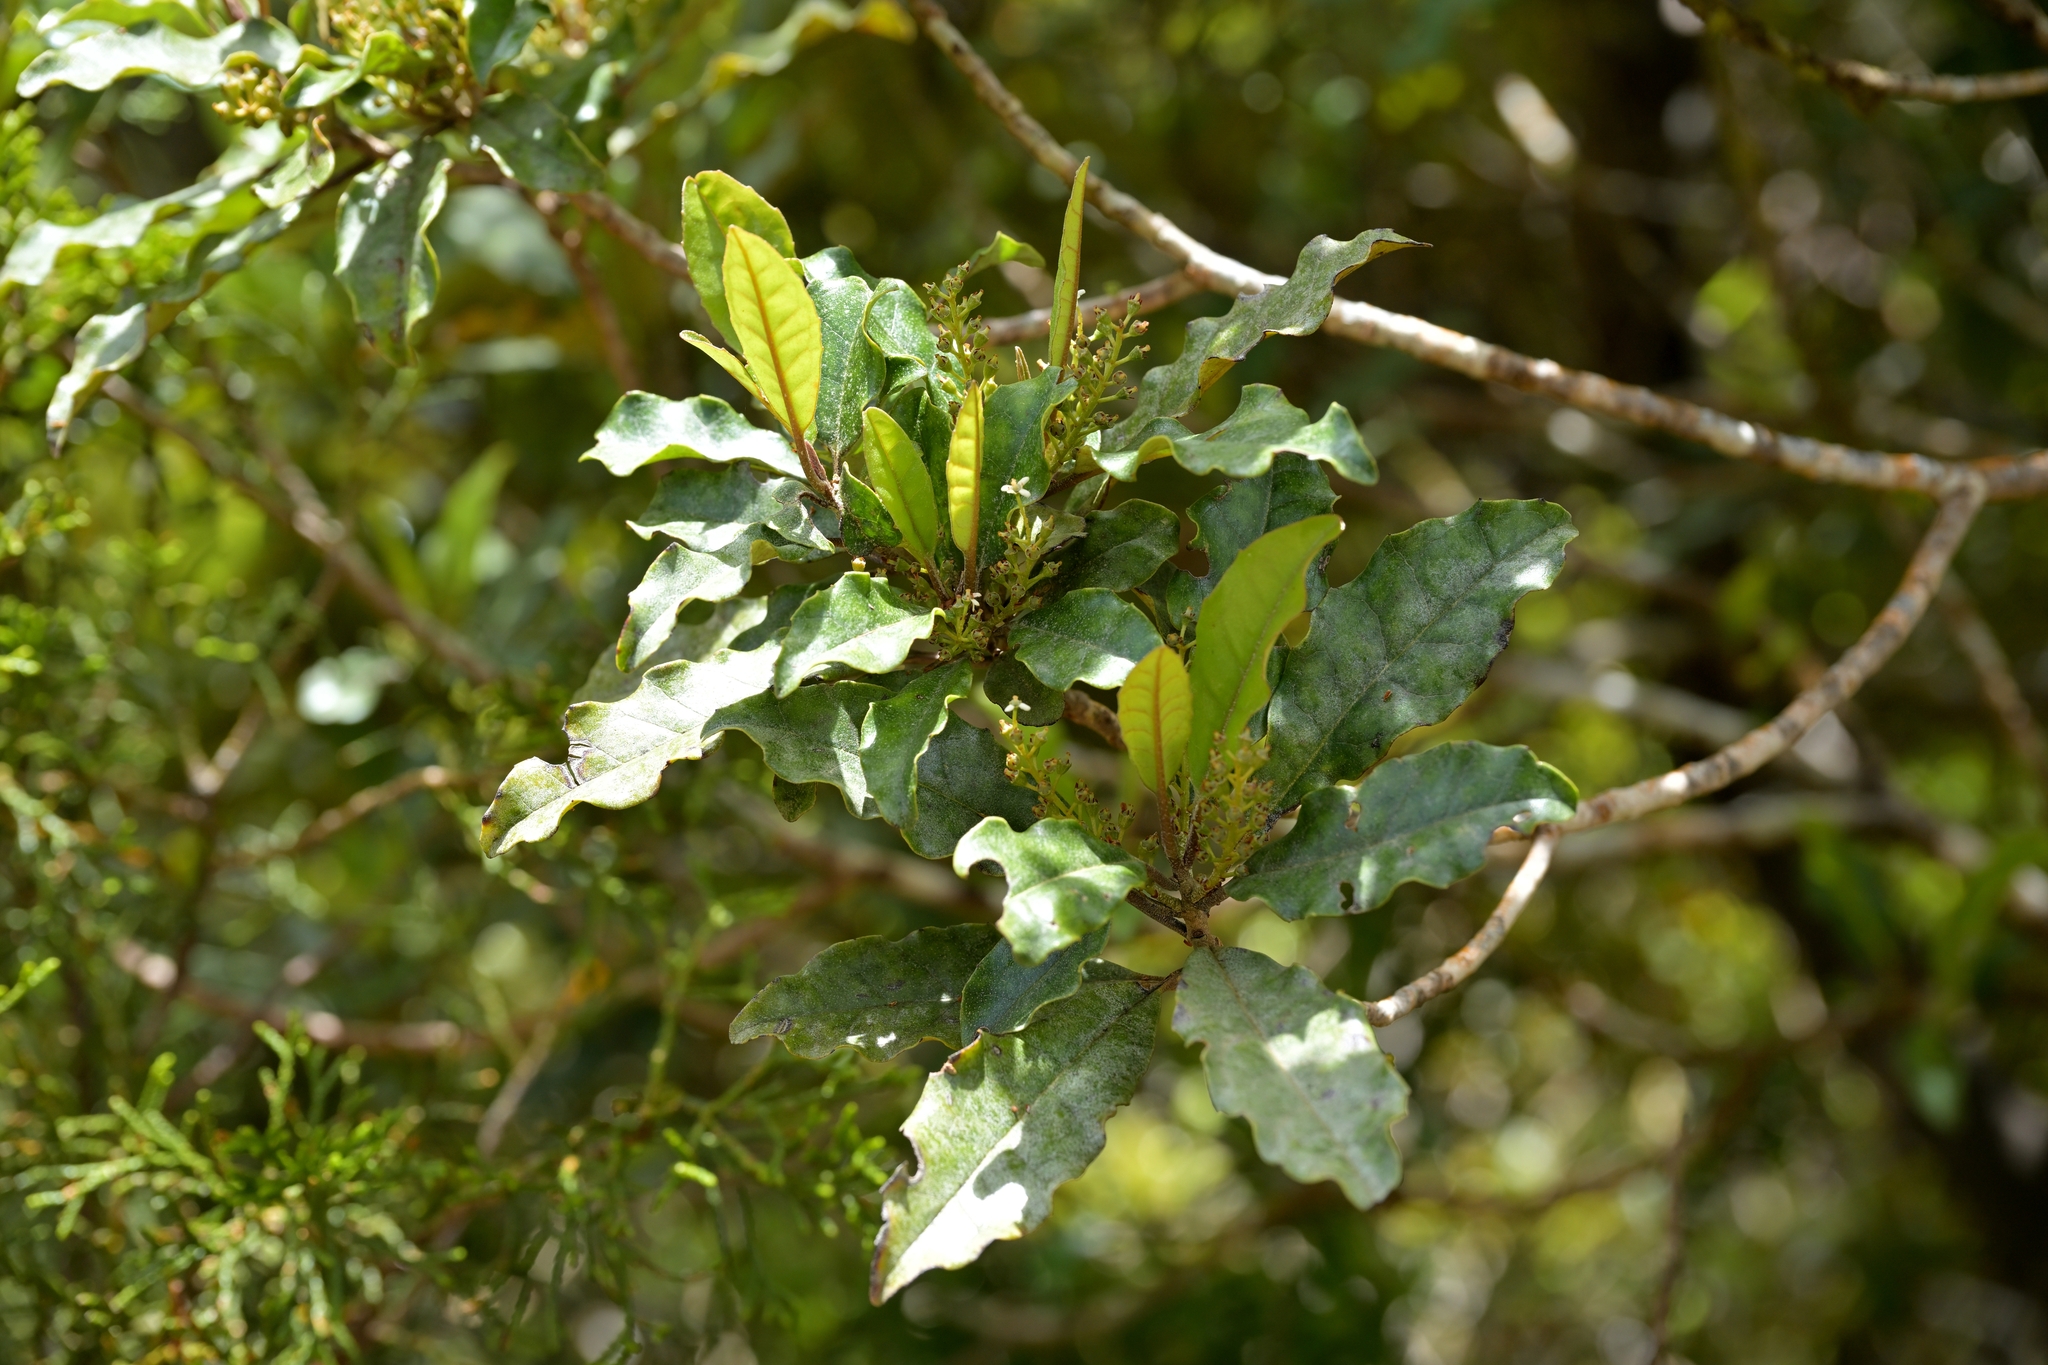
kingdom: Plantae
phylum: Tracheophyta
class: Magnoliopsida
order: Paracryphiales
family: Paracryphiaceae
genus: Quintinia
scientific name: Quintinia serrata
